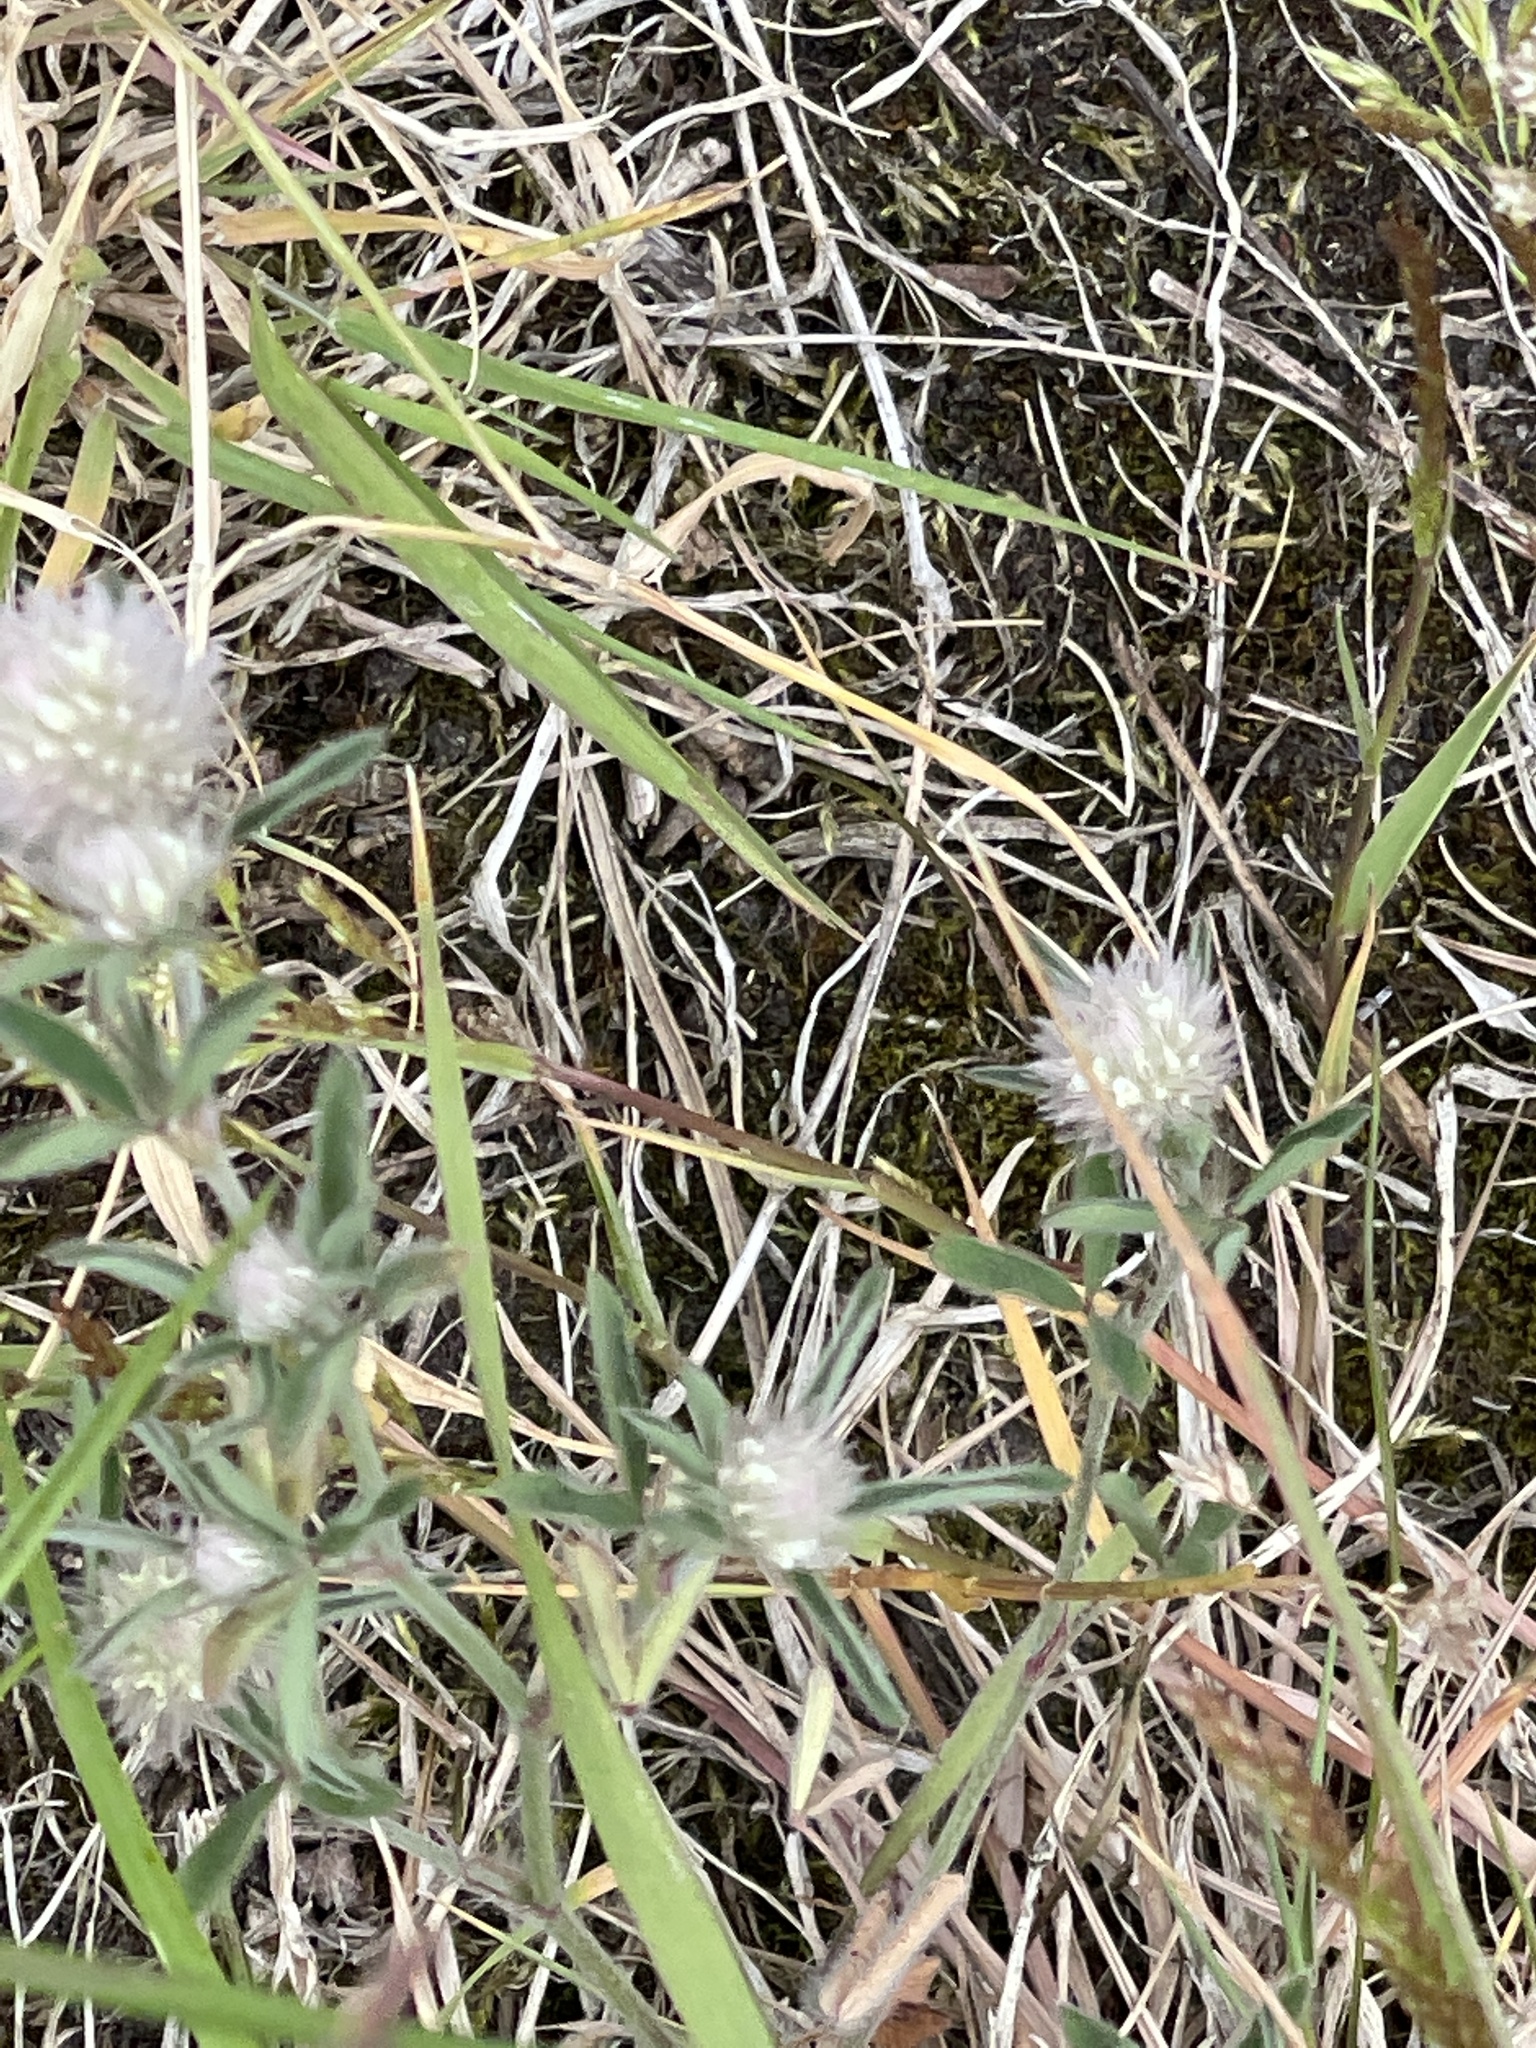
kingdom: Plantae
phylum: Tracheophyta
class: Magnoliopsida
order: Fabales
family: Fabaceae
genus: Trifolium
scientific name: Trifolium arvense
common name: Hare's-foot clover
